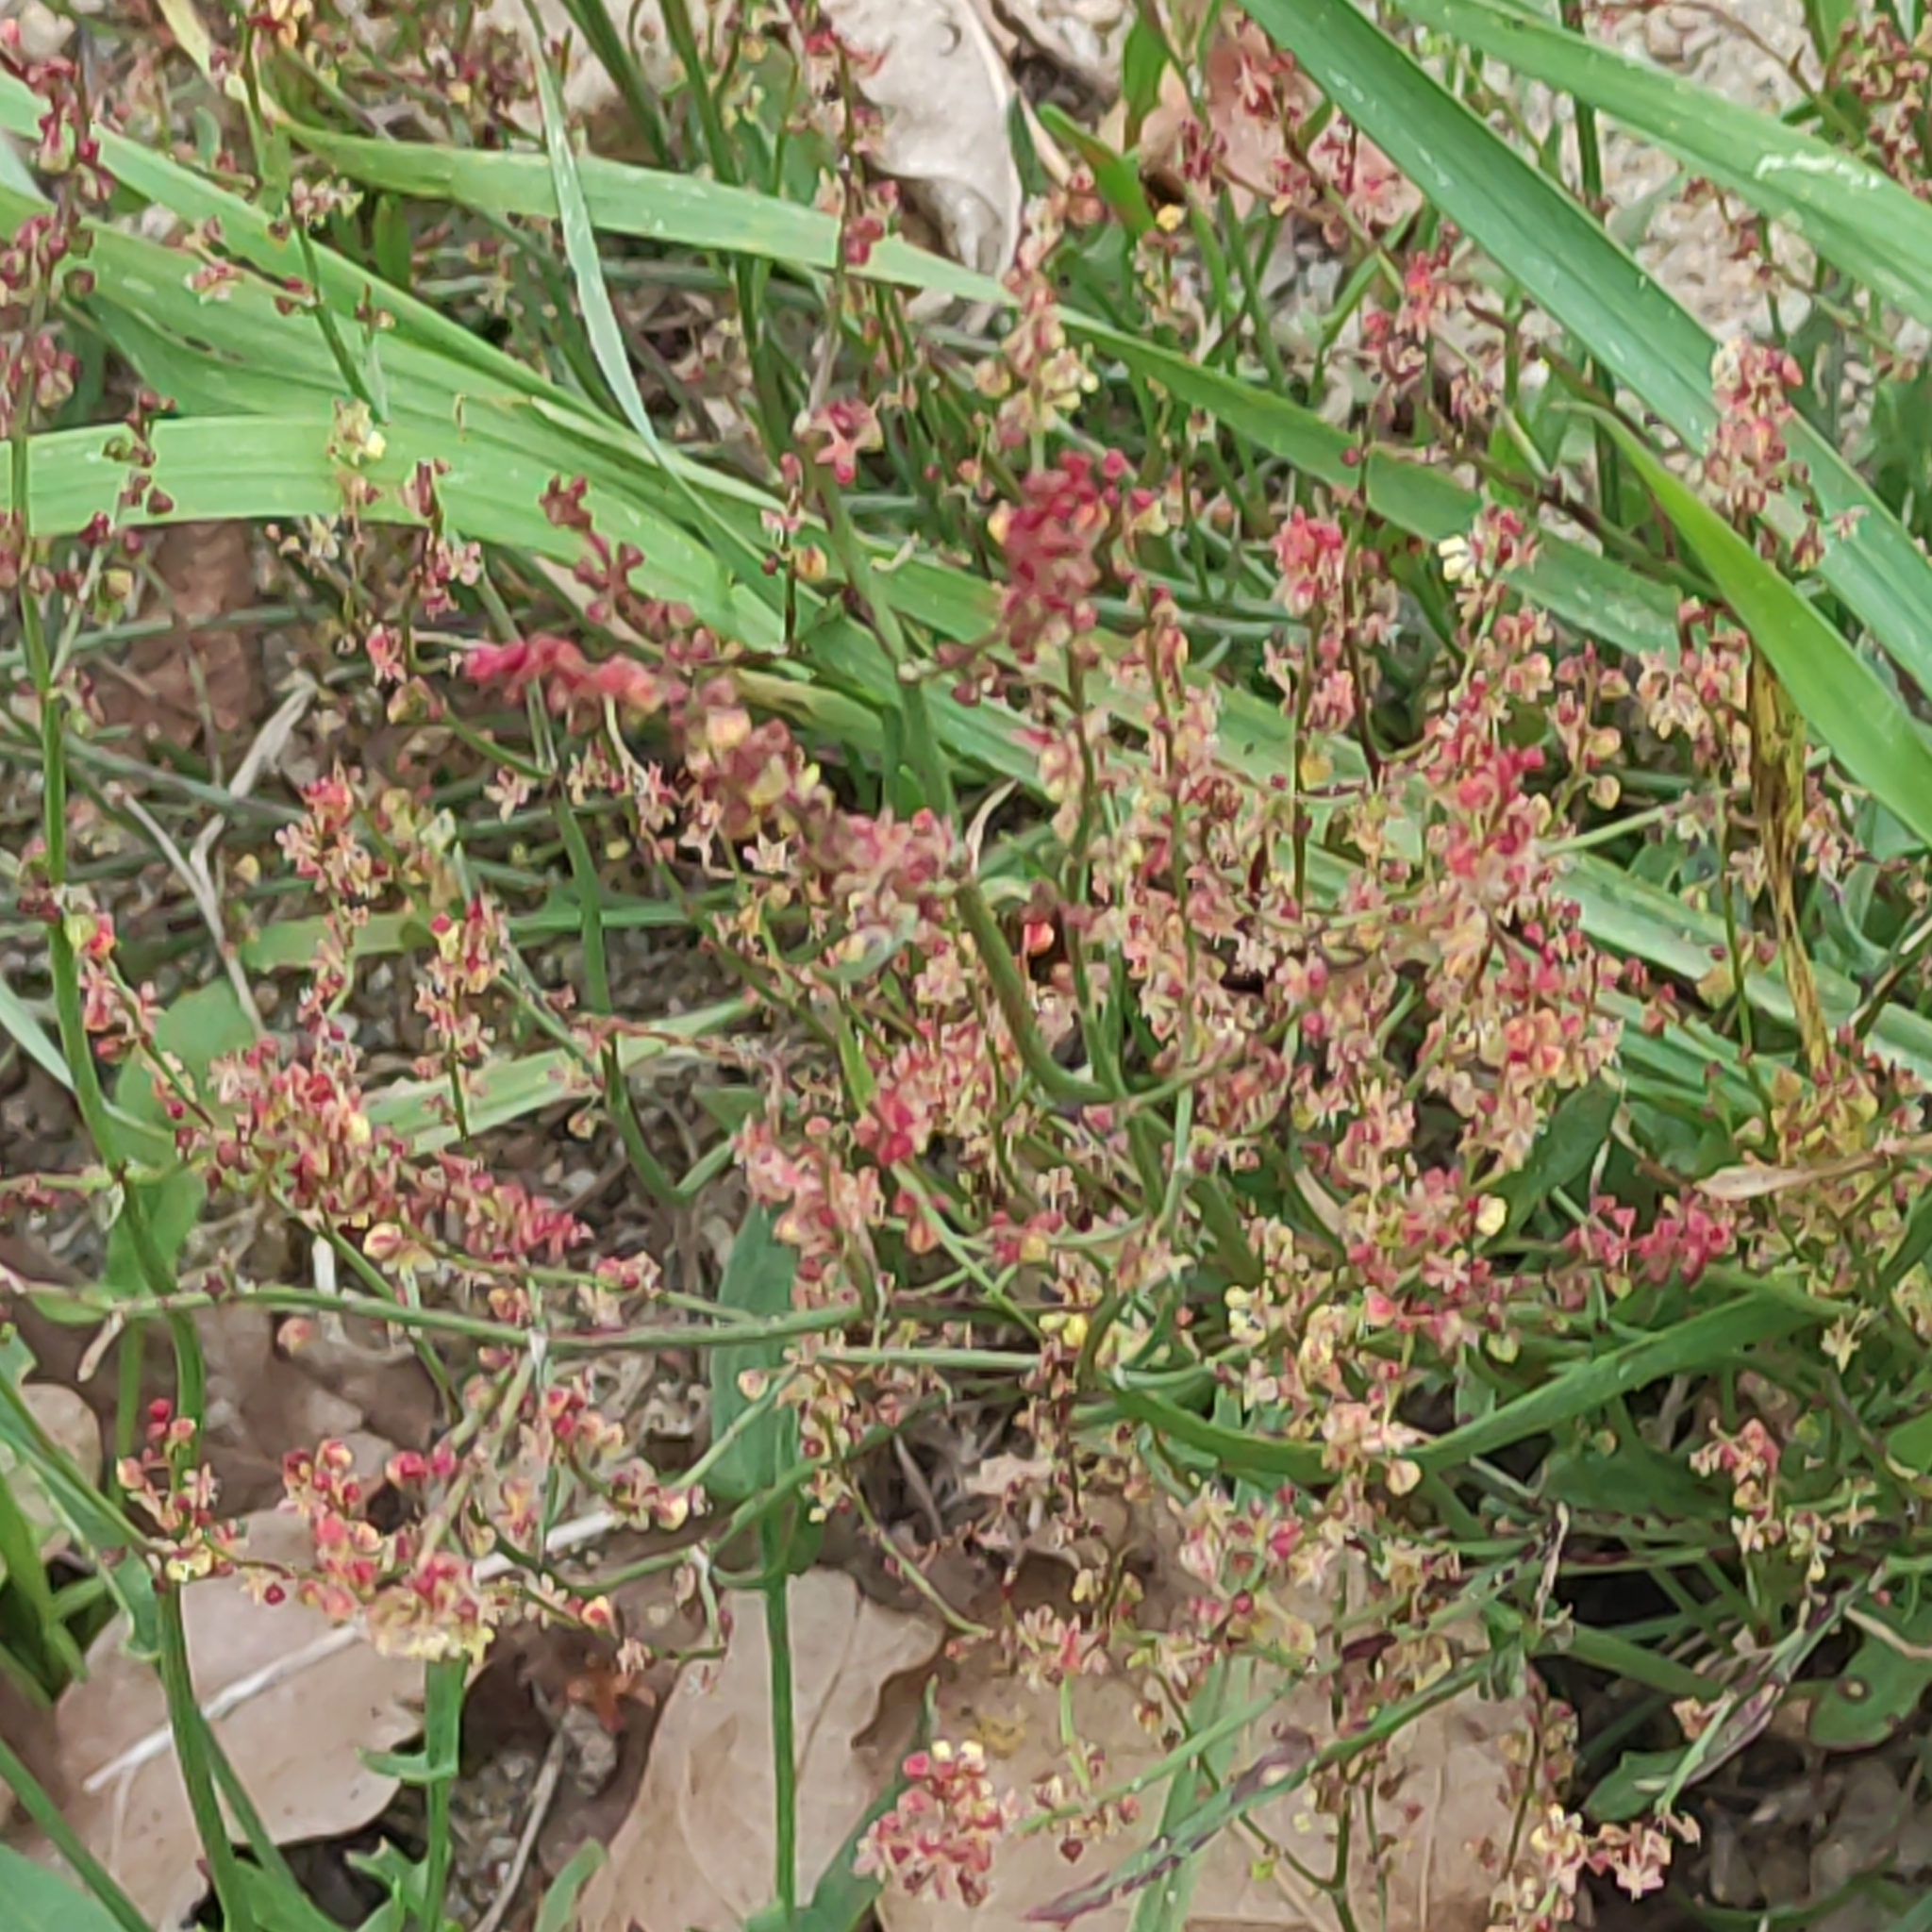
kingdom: Plantae
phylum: Tracheophyta
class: Magnoliopsida
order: Caryophyllales
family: Polygonaceae
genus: Rumex
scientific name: Rumex acetosella
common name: Common sheep sorrel
